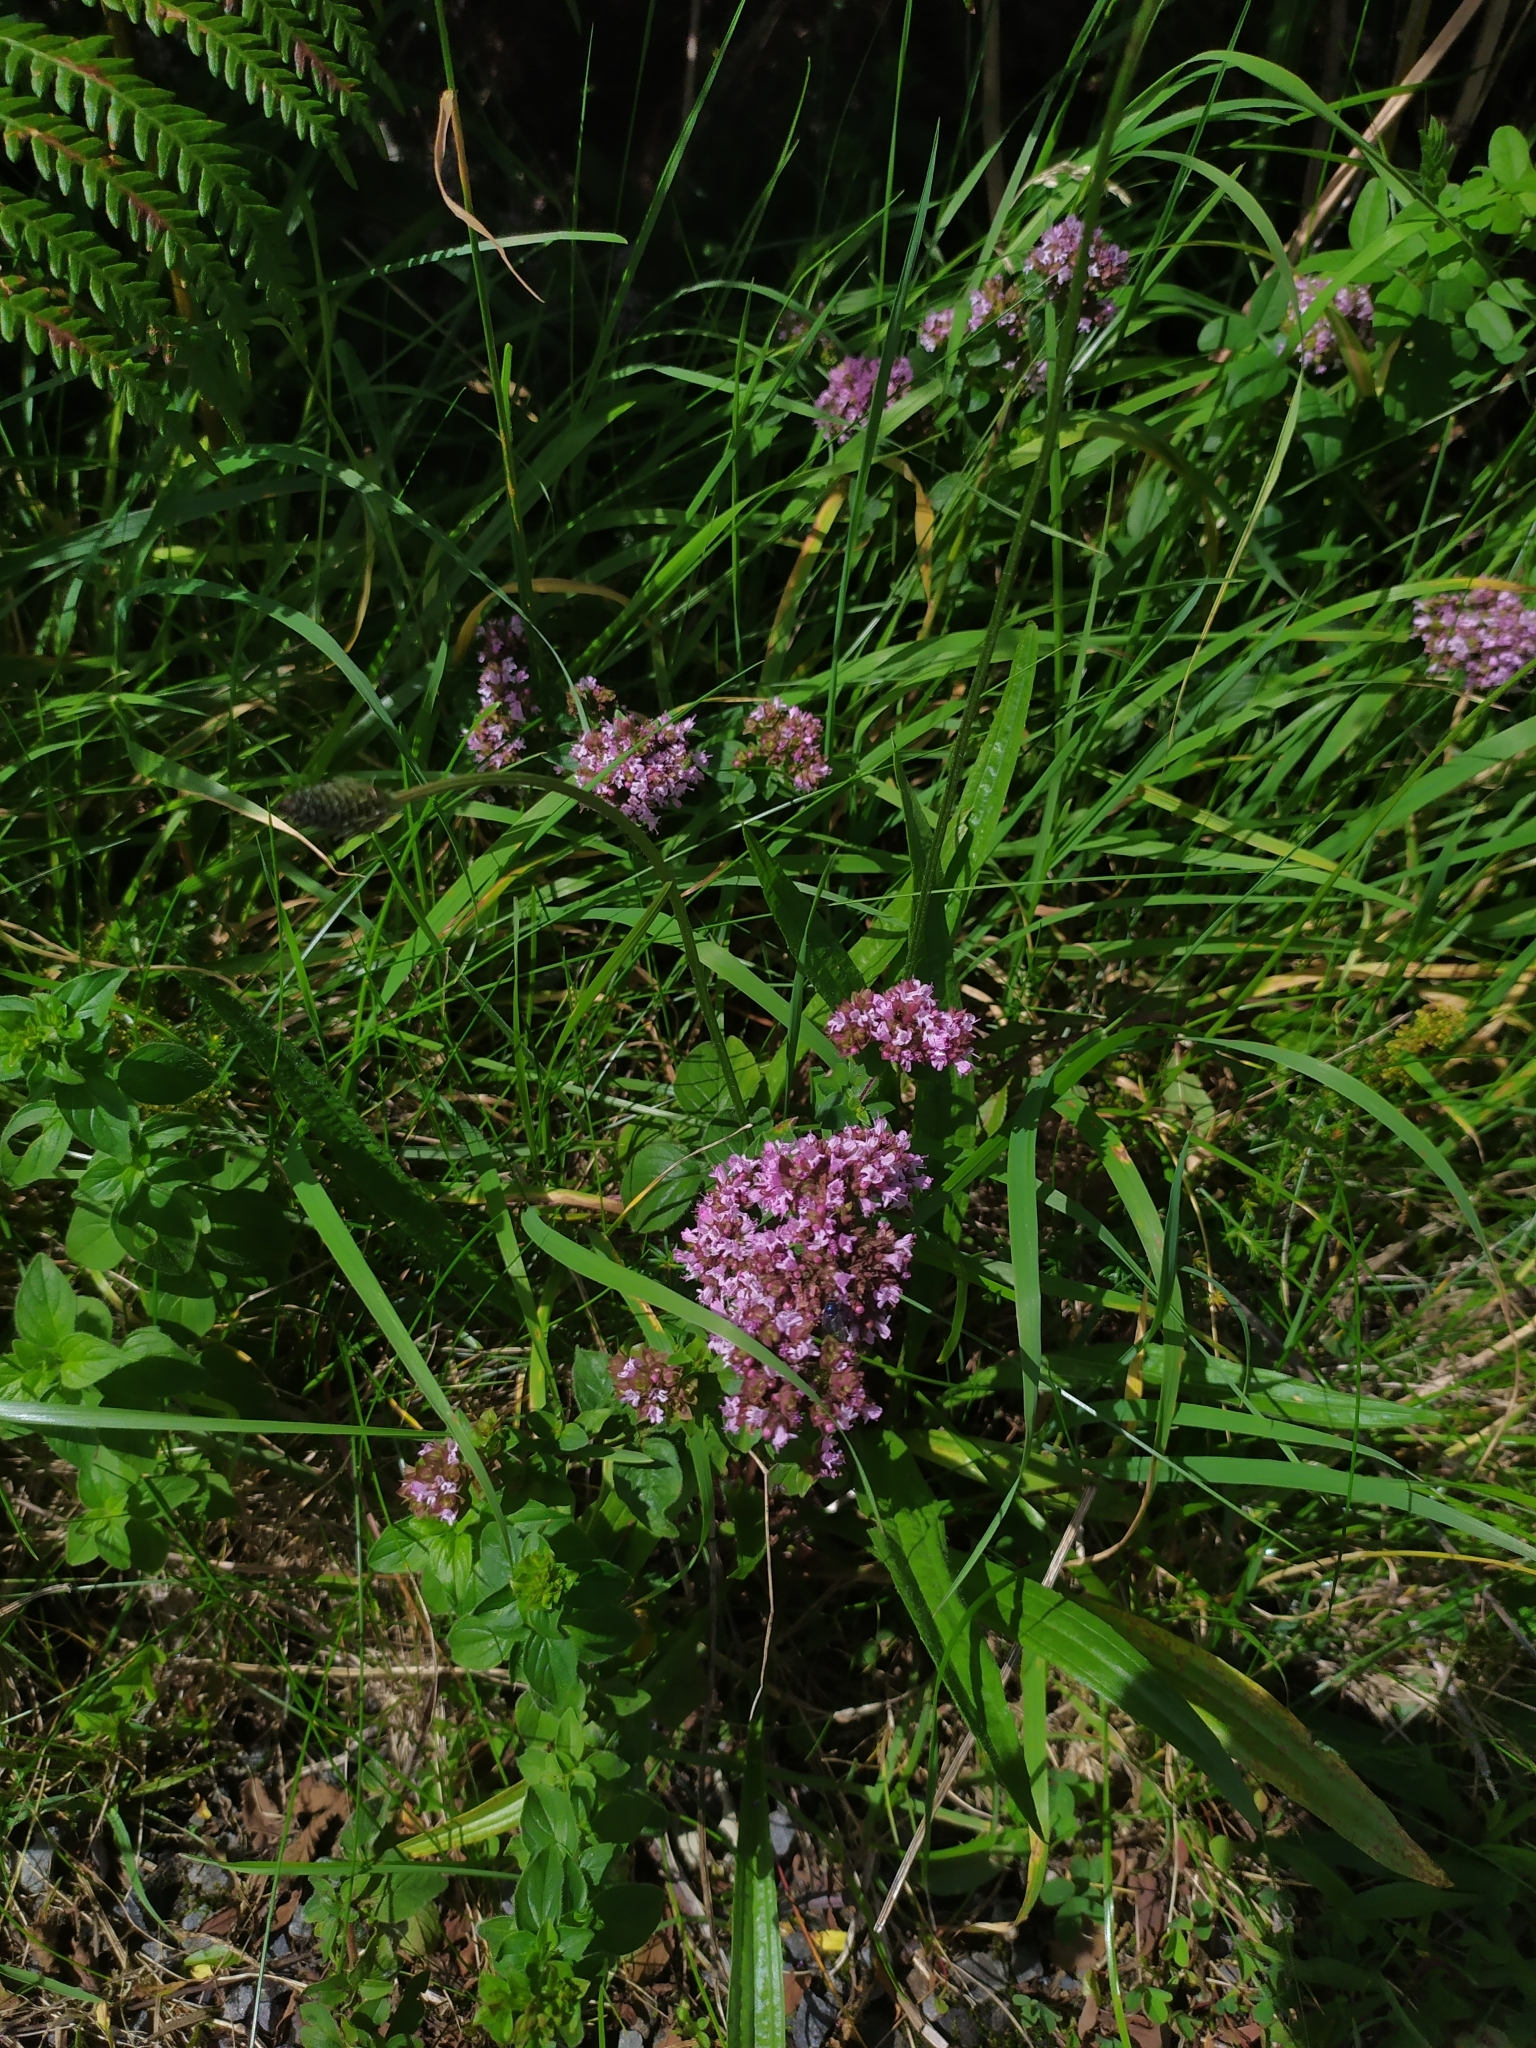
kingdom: Plantae
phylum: Tracheophyta
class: Magnoliopsida
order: Lamiales
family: Lamiaceae
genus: Origanum
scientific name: Origanum vulgare
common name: Wild marjoram
